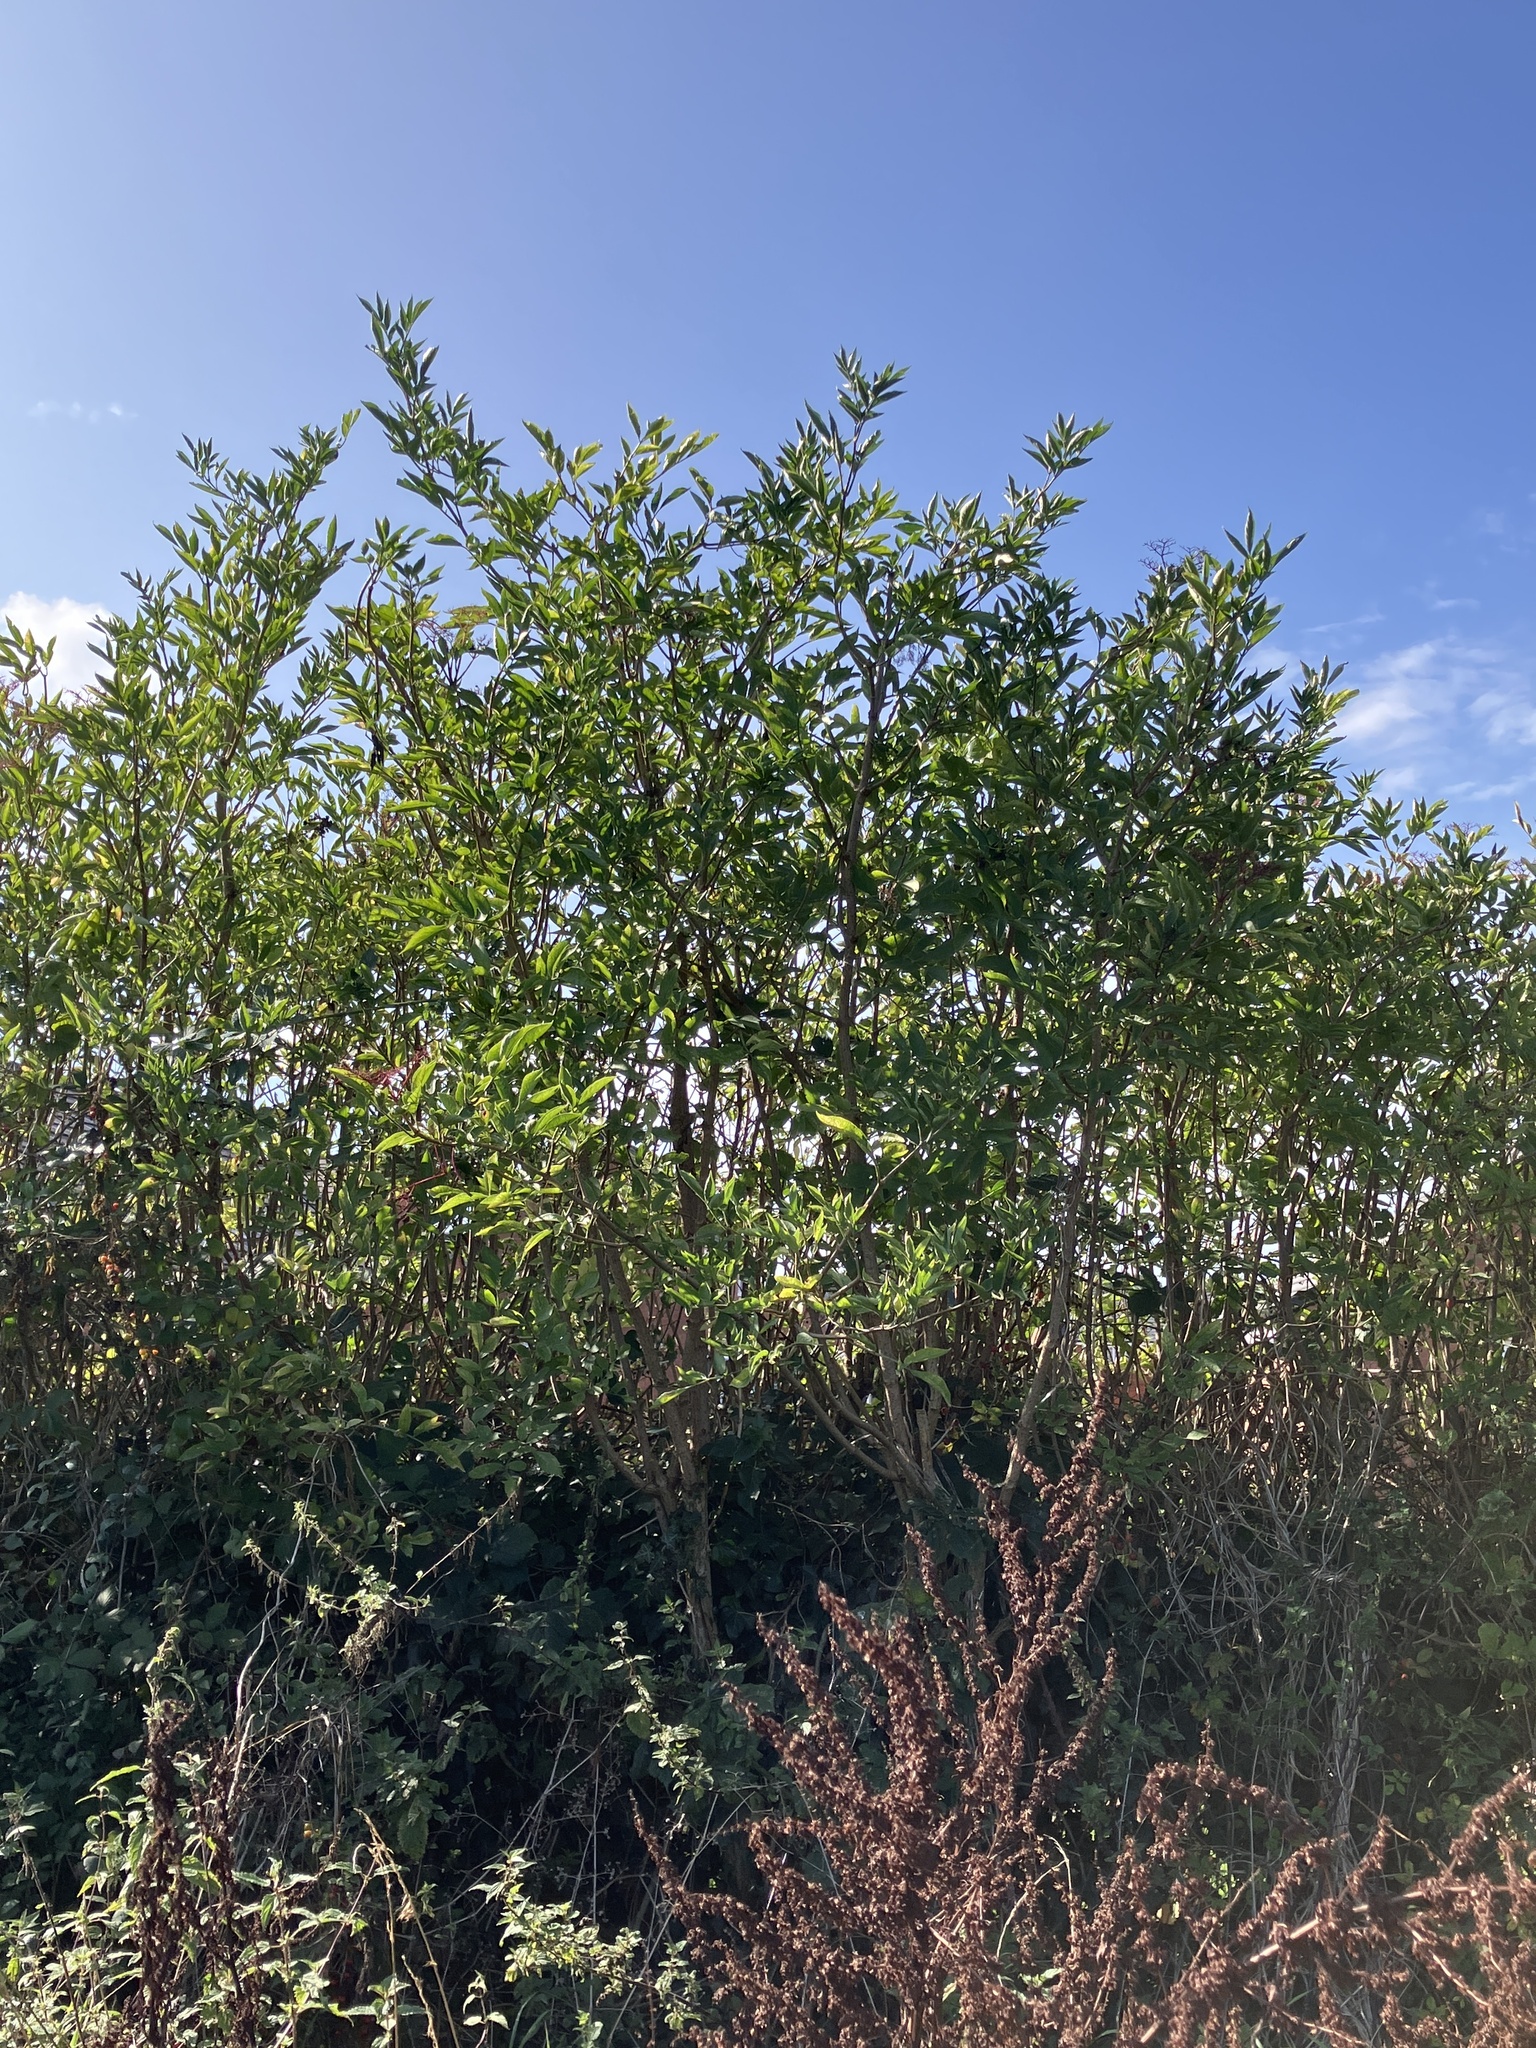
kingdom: Plantae
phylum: Tracheophyta
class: Magnoliopsida
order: Dipsacales
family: Viburnaceae
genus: Sambucus
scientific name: Sambucus nigra
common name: Elder
